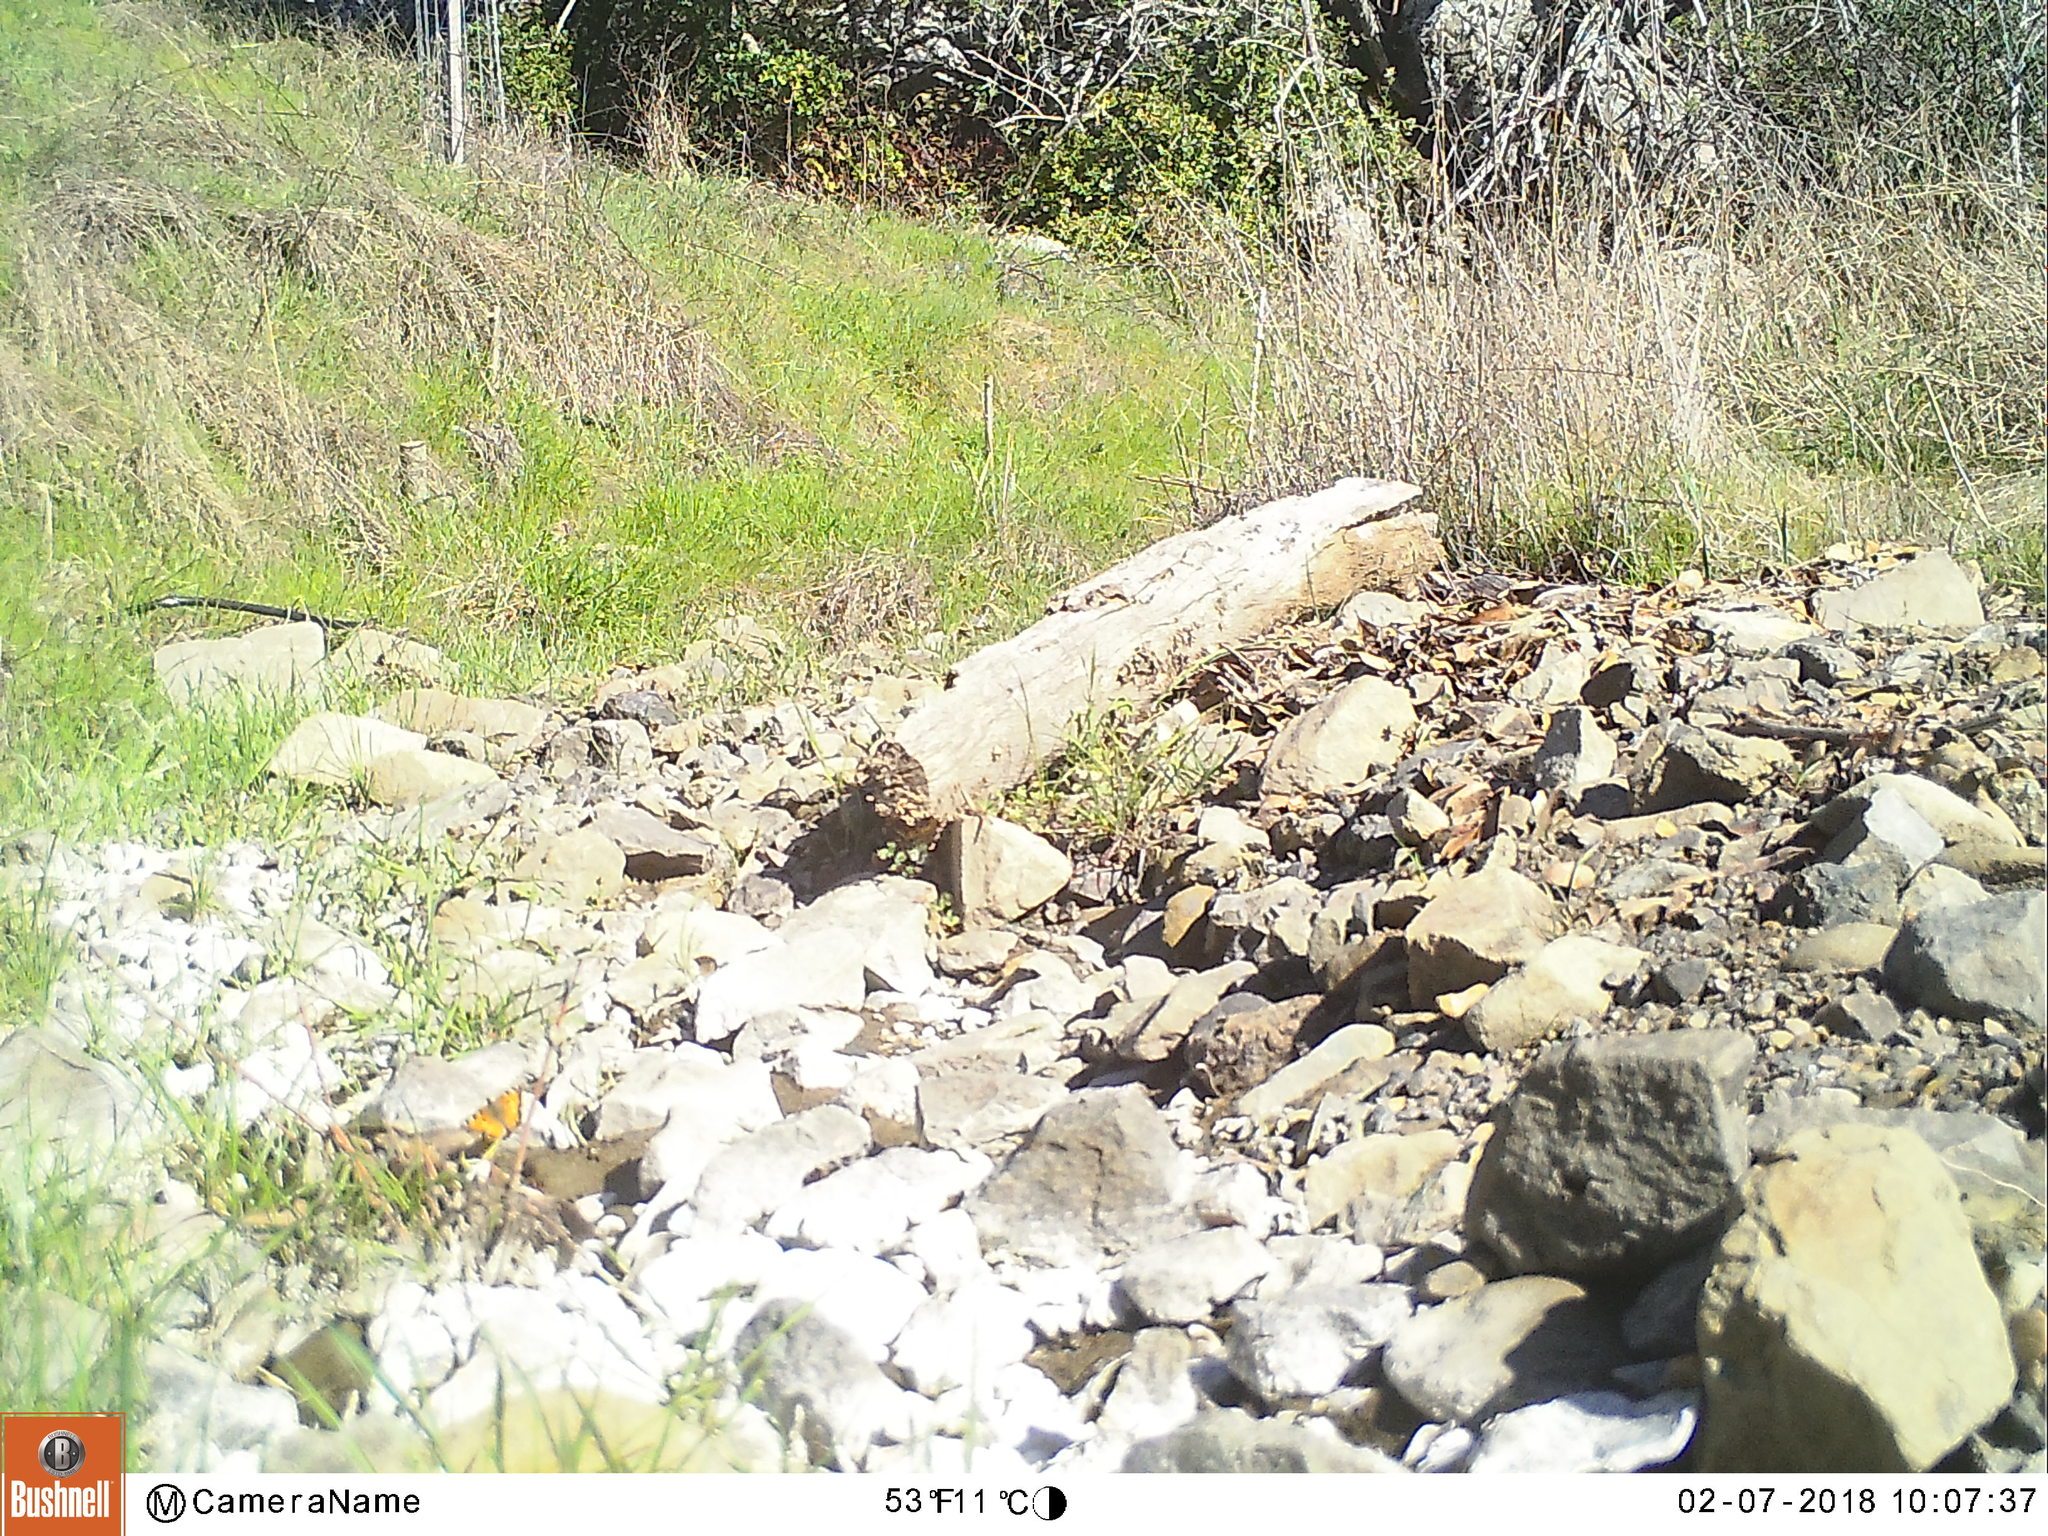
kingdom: Animalia
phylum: Arthropoda
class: Insecta
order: Lepidoptera
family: Nymphalidae
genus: Nymphalis
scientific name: Nymphalis californica
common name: California tortoiseshell
